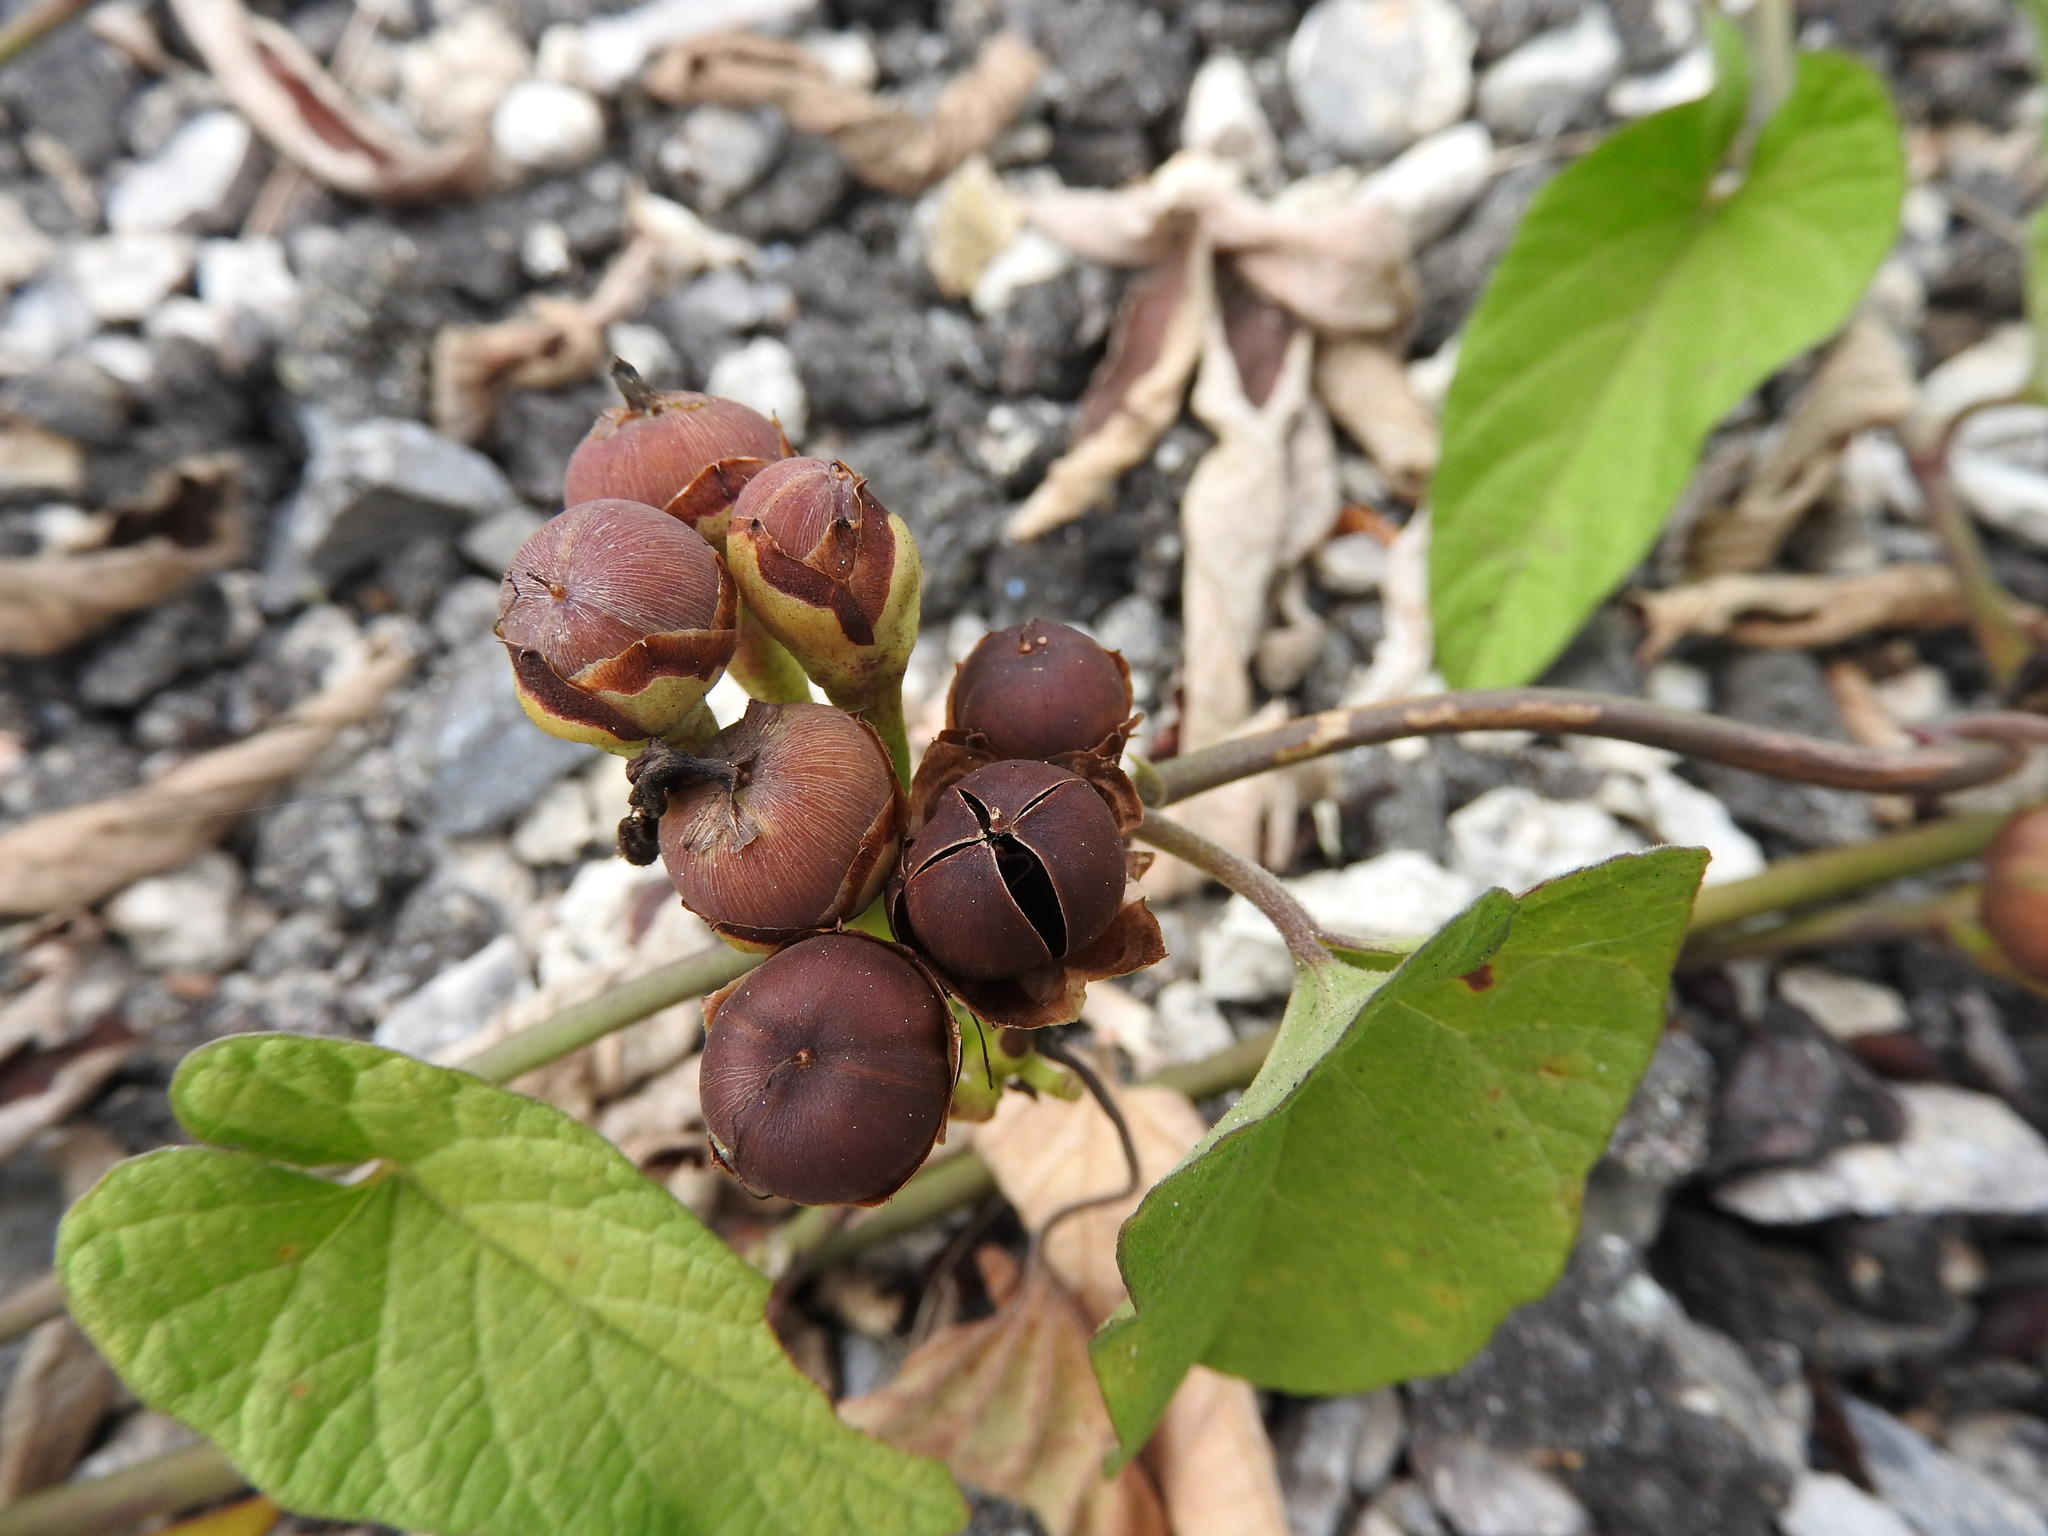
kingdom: Plantae
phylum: Tracheophyta
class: Magnoliopsida
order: Solanales
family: Convolvulaceae
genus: Camonea
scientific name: Camonea umbellata
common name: Hogvine
